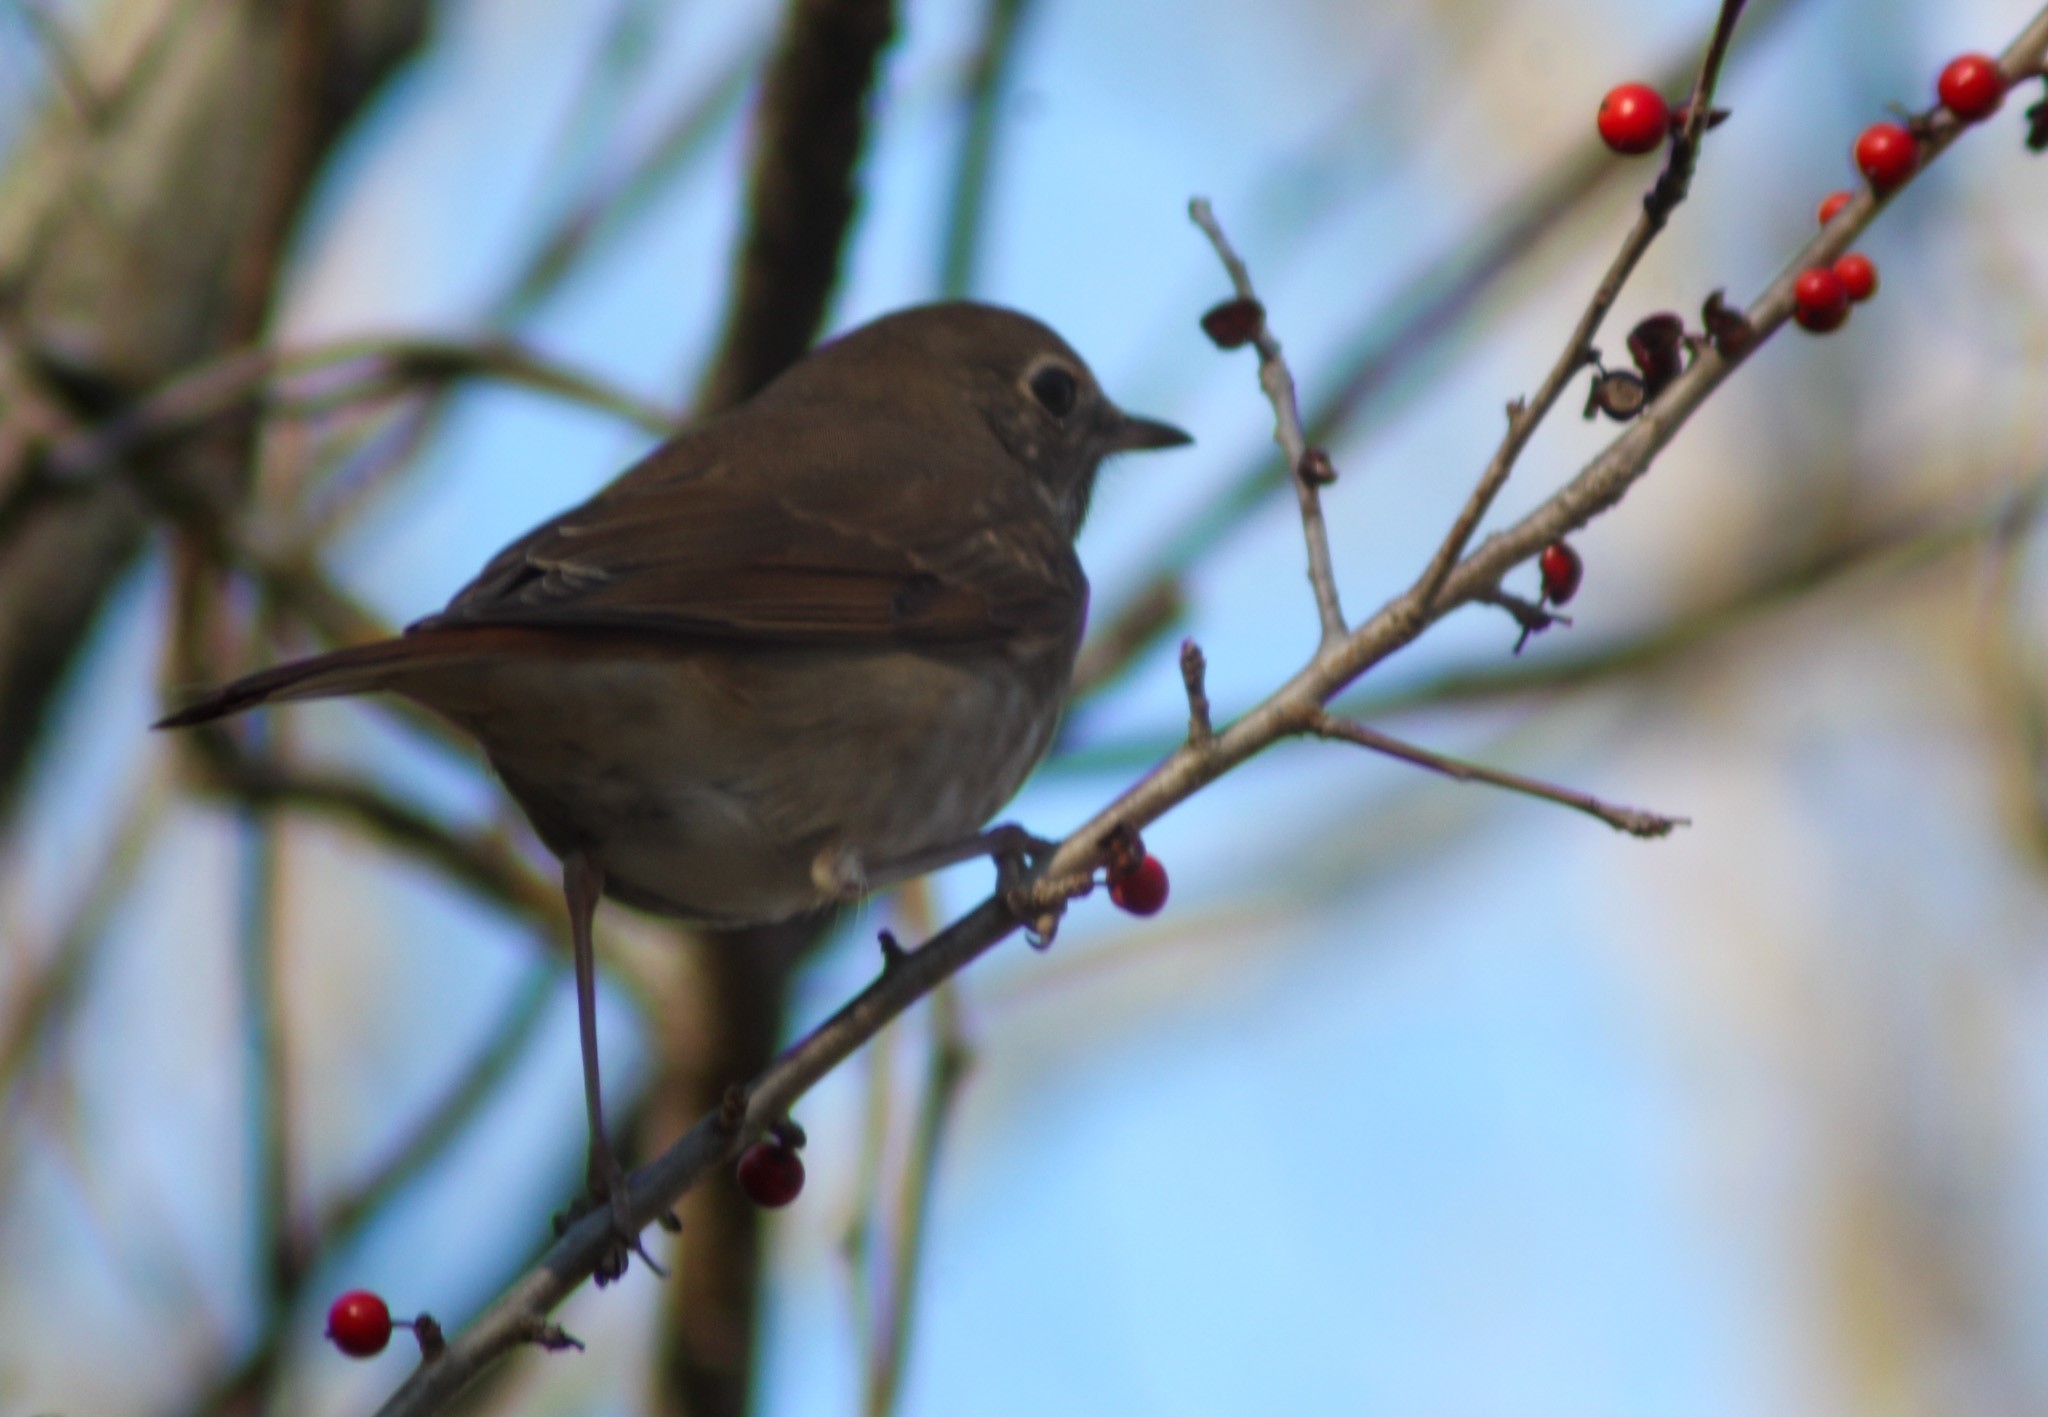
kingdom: Animalia
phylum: Chordata
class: Aves
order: Passeriformes
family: Turdidae
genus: Catharus
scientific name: Catharus guttatus
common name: Hermit thrush
